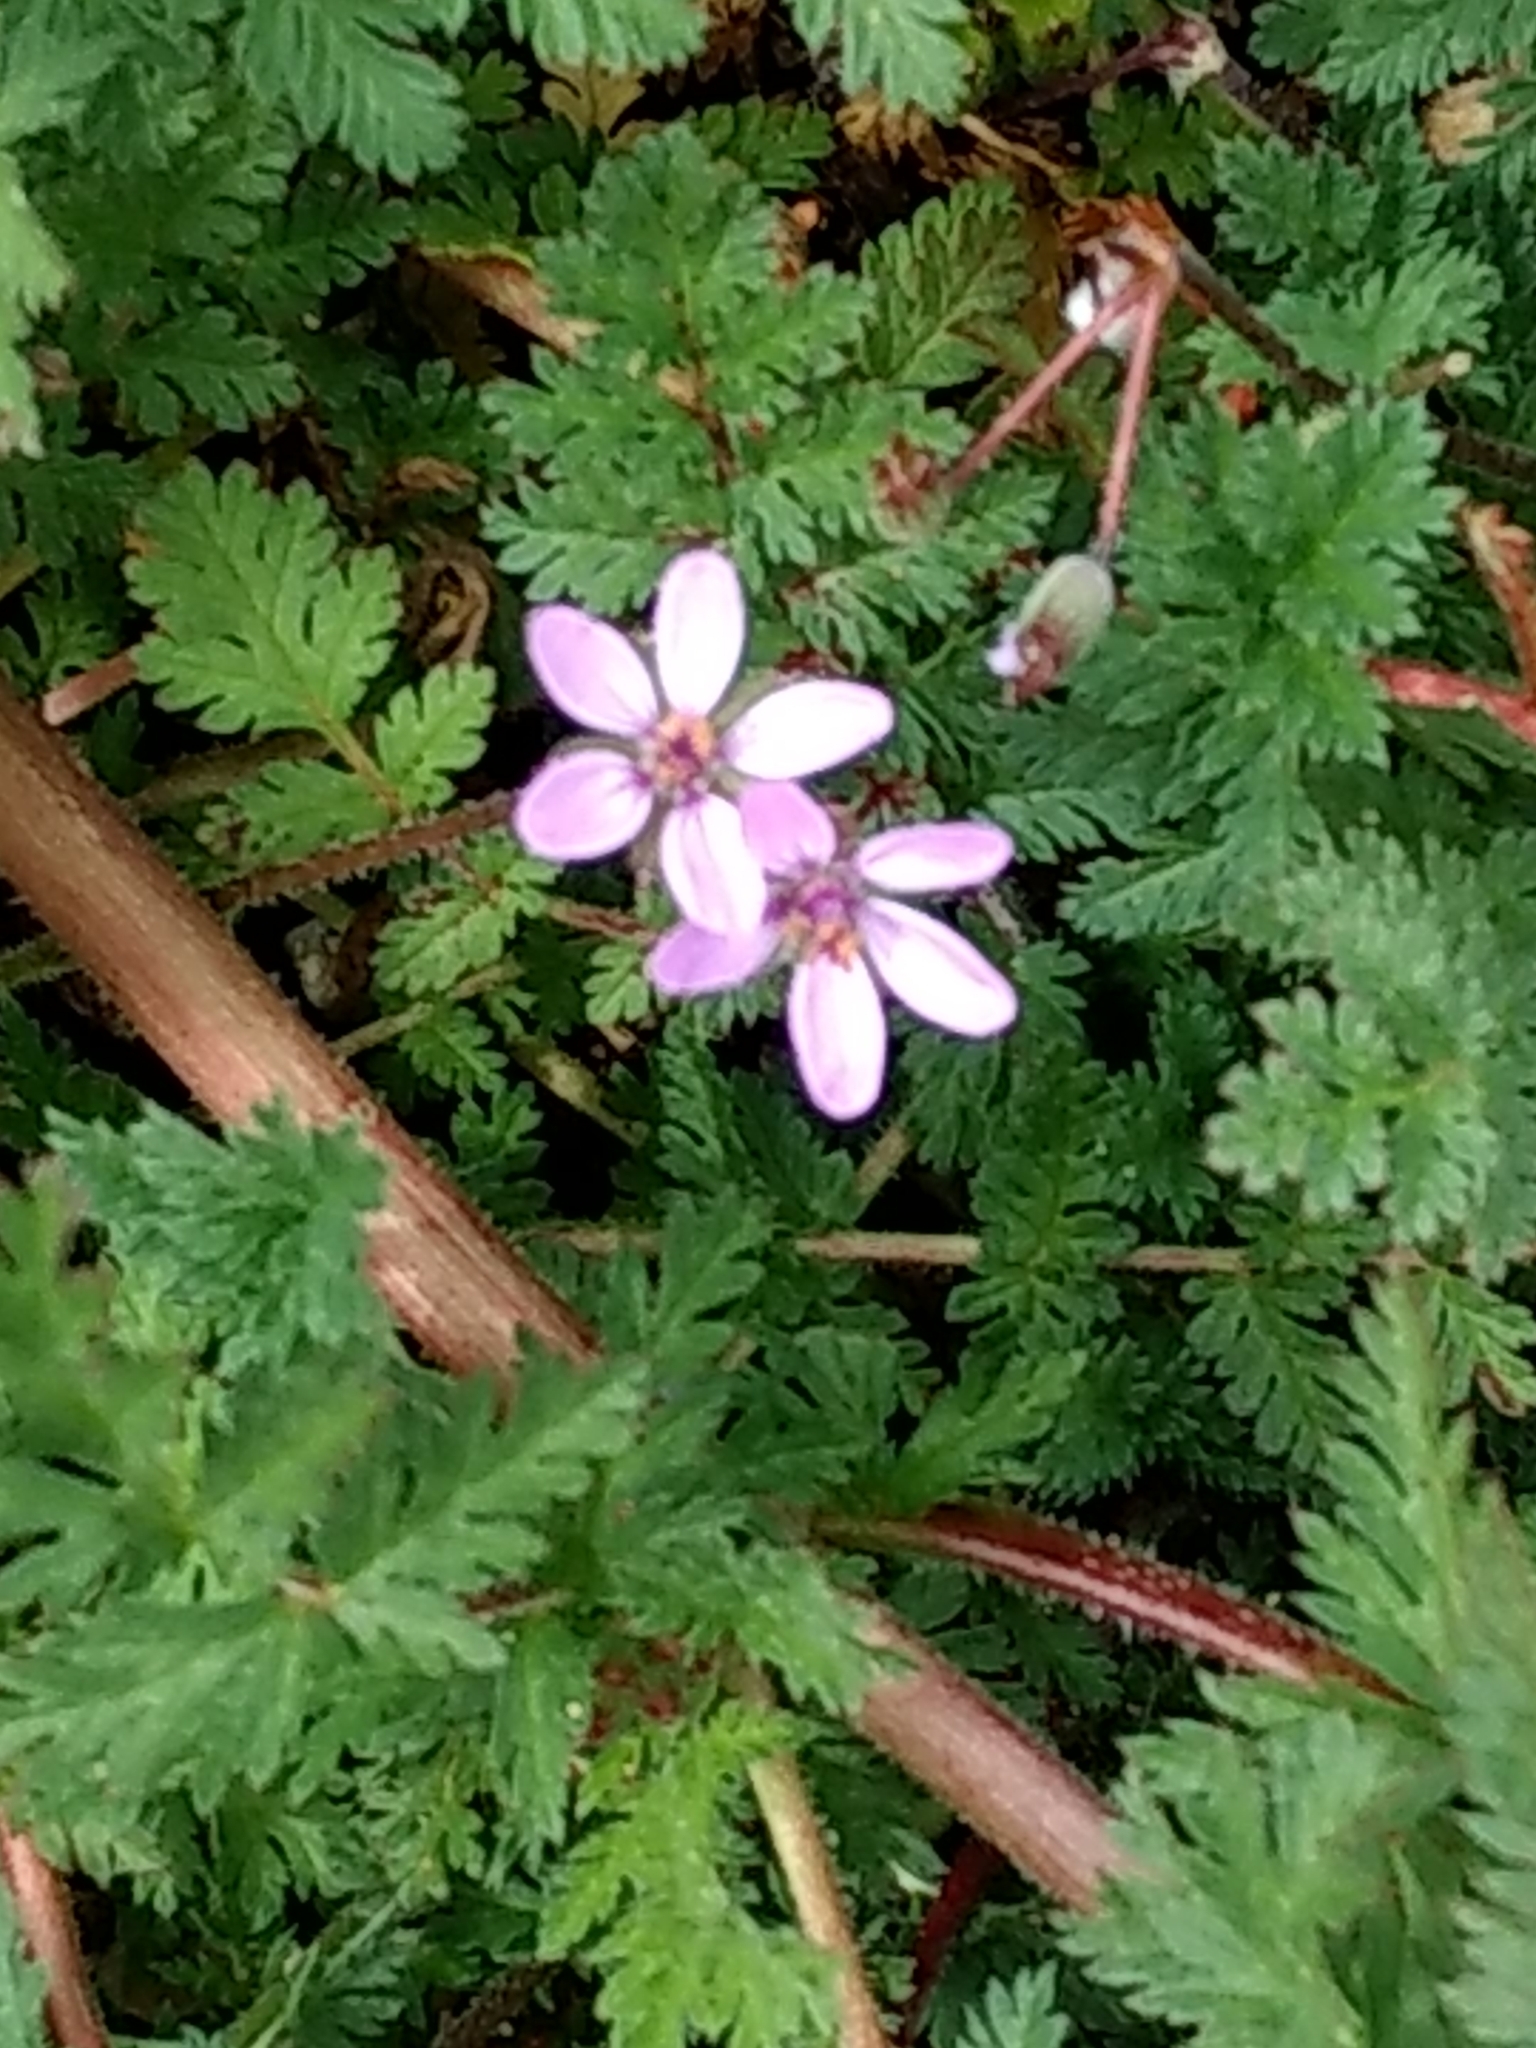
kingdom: Plantae
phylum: Tracheophyta
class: Magnoliopsida
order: Geraniales
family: Geraniaceae
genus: Erodium
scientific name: Erodium cicutarium
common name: Common stork's-bill
